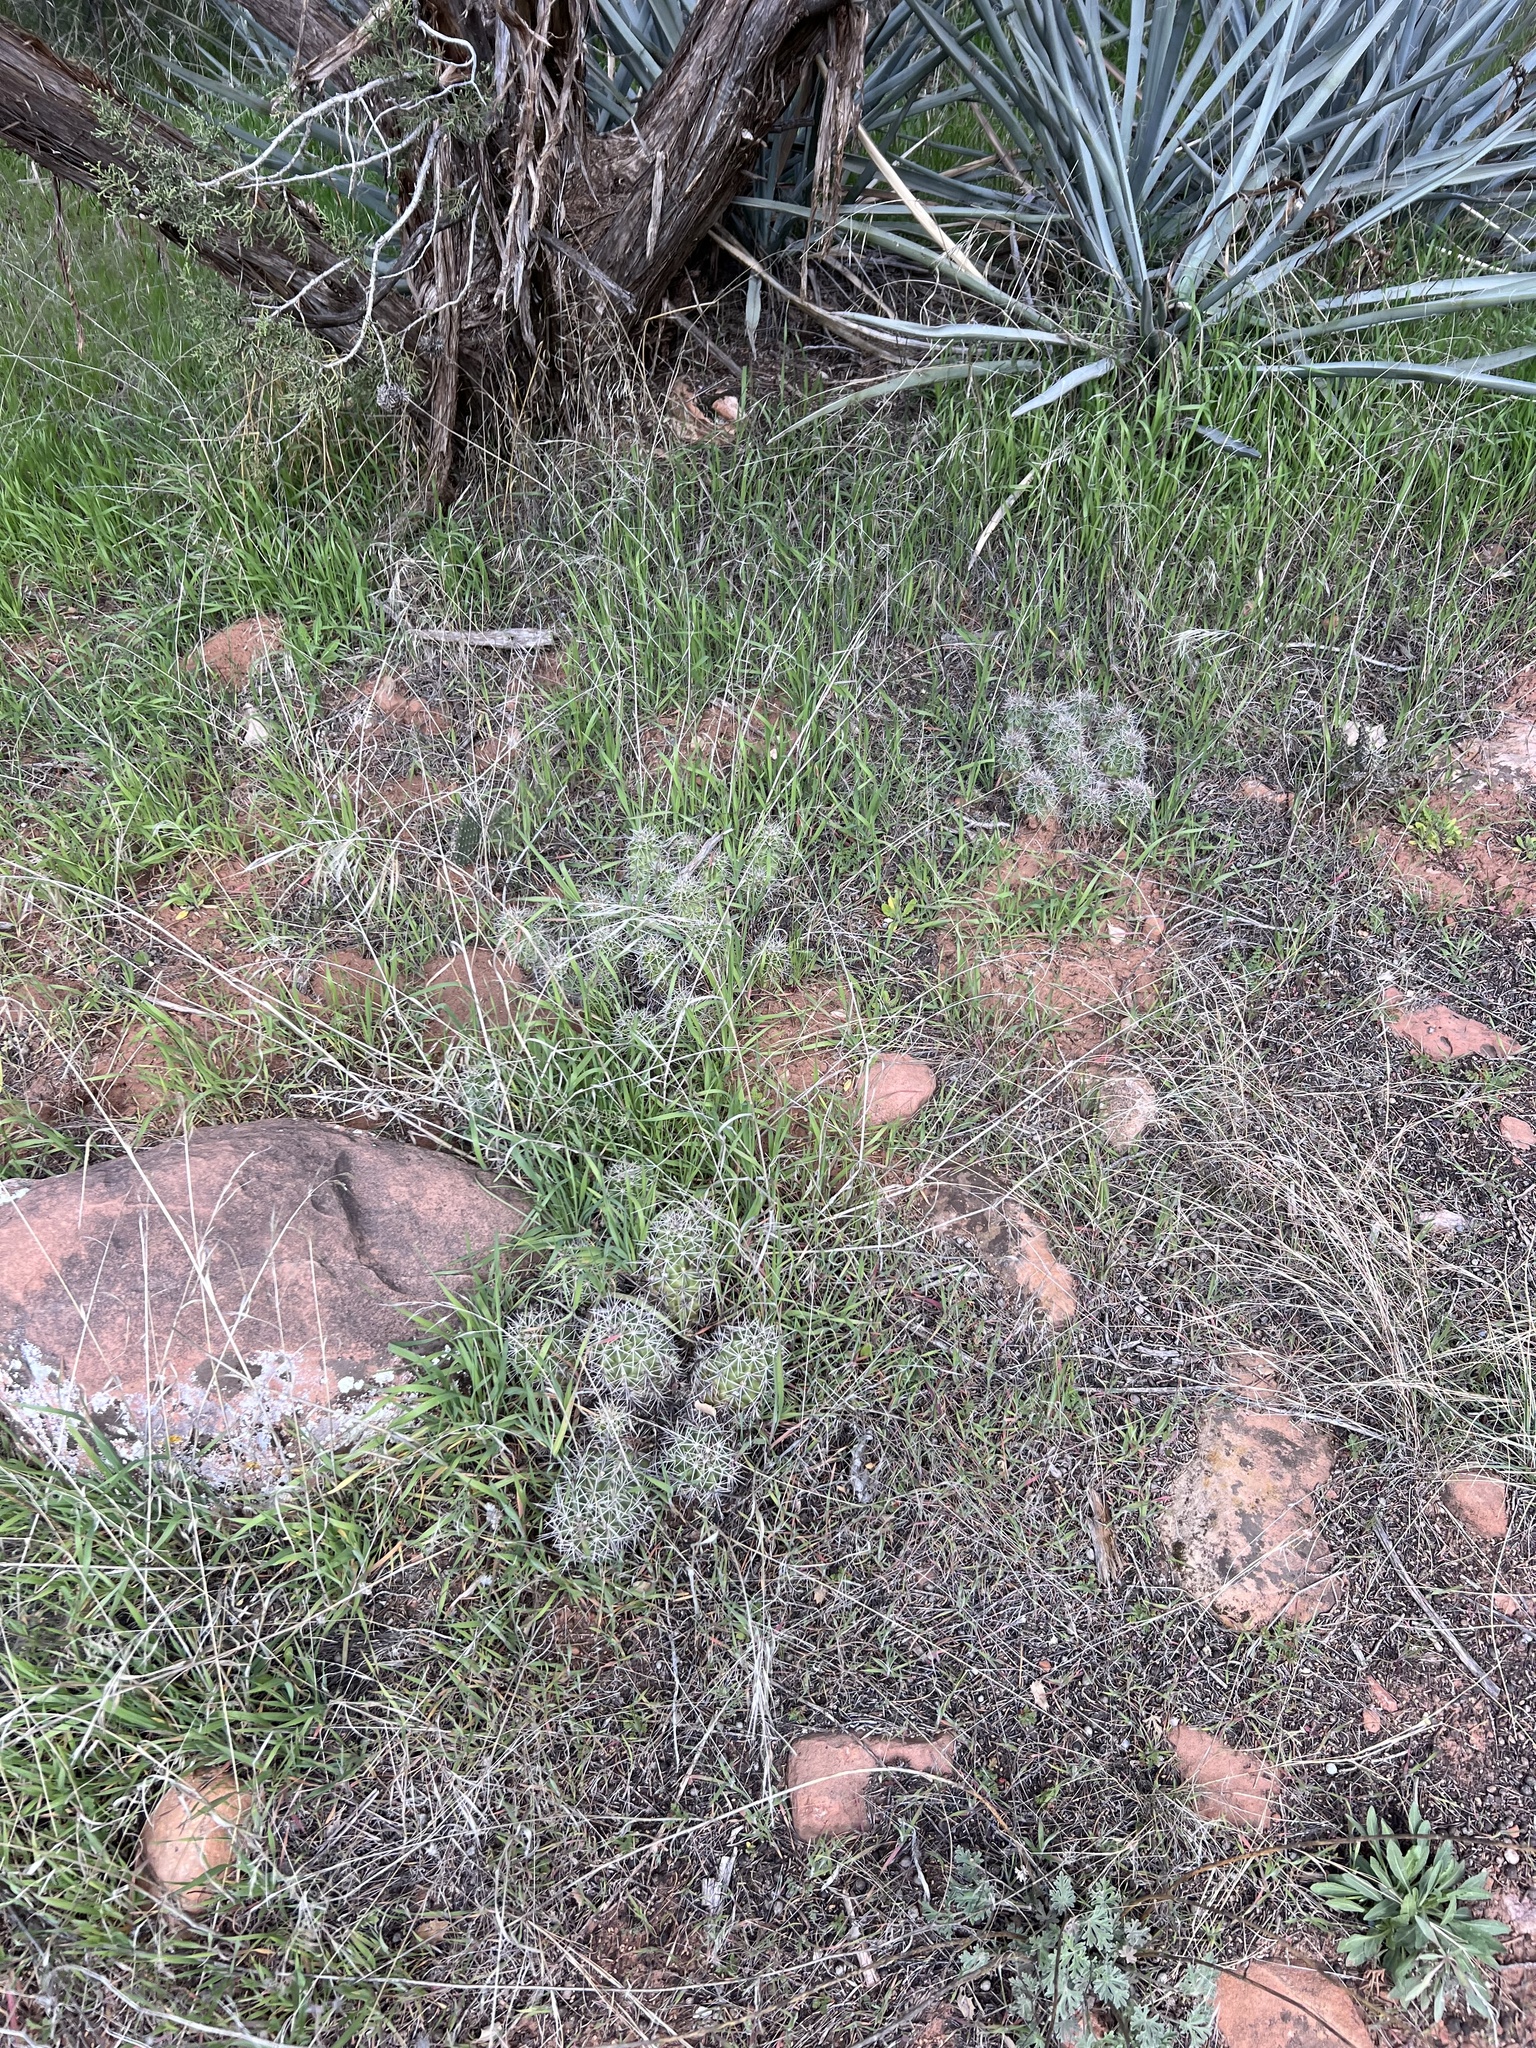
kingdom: Plantae
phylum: Tracheophyta
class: Magnoliopsida
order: Caryophyllales
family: Cactaceae
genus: Echinocereus
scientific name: Echinocereus triglochidiatus
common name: Claretcup hedgehog
